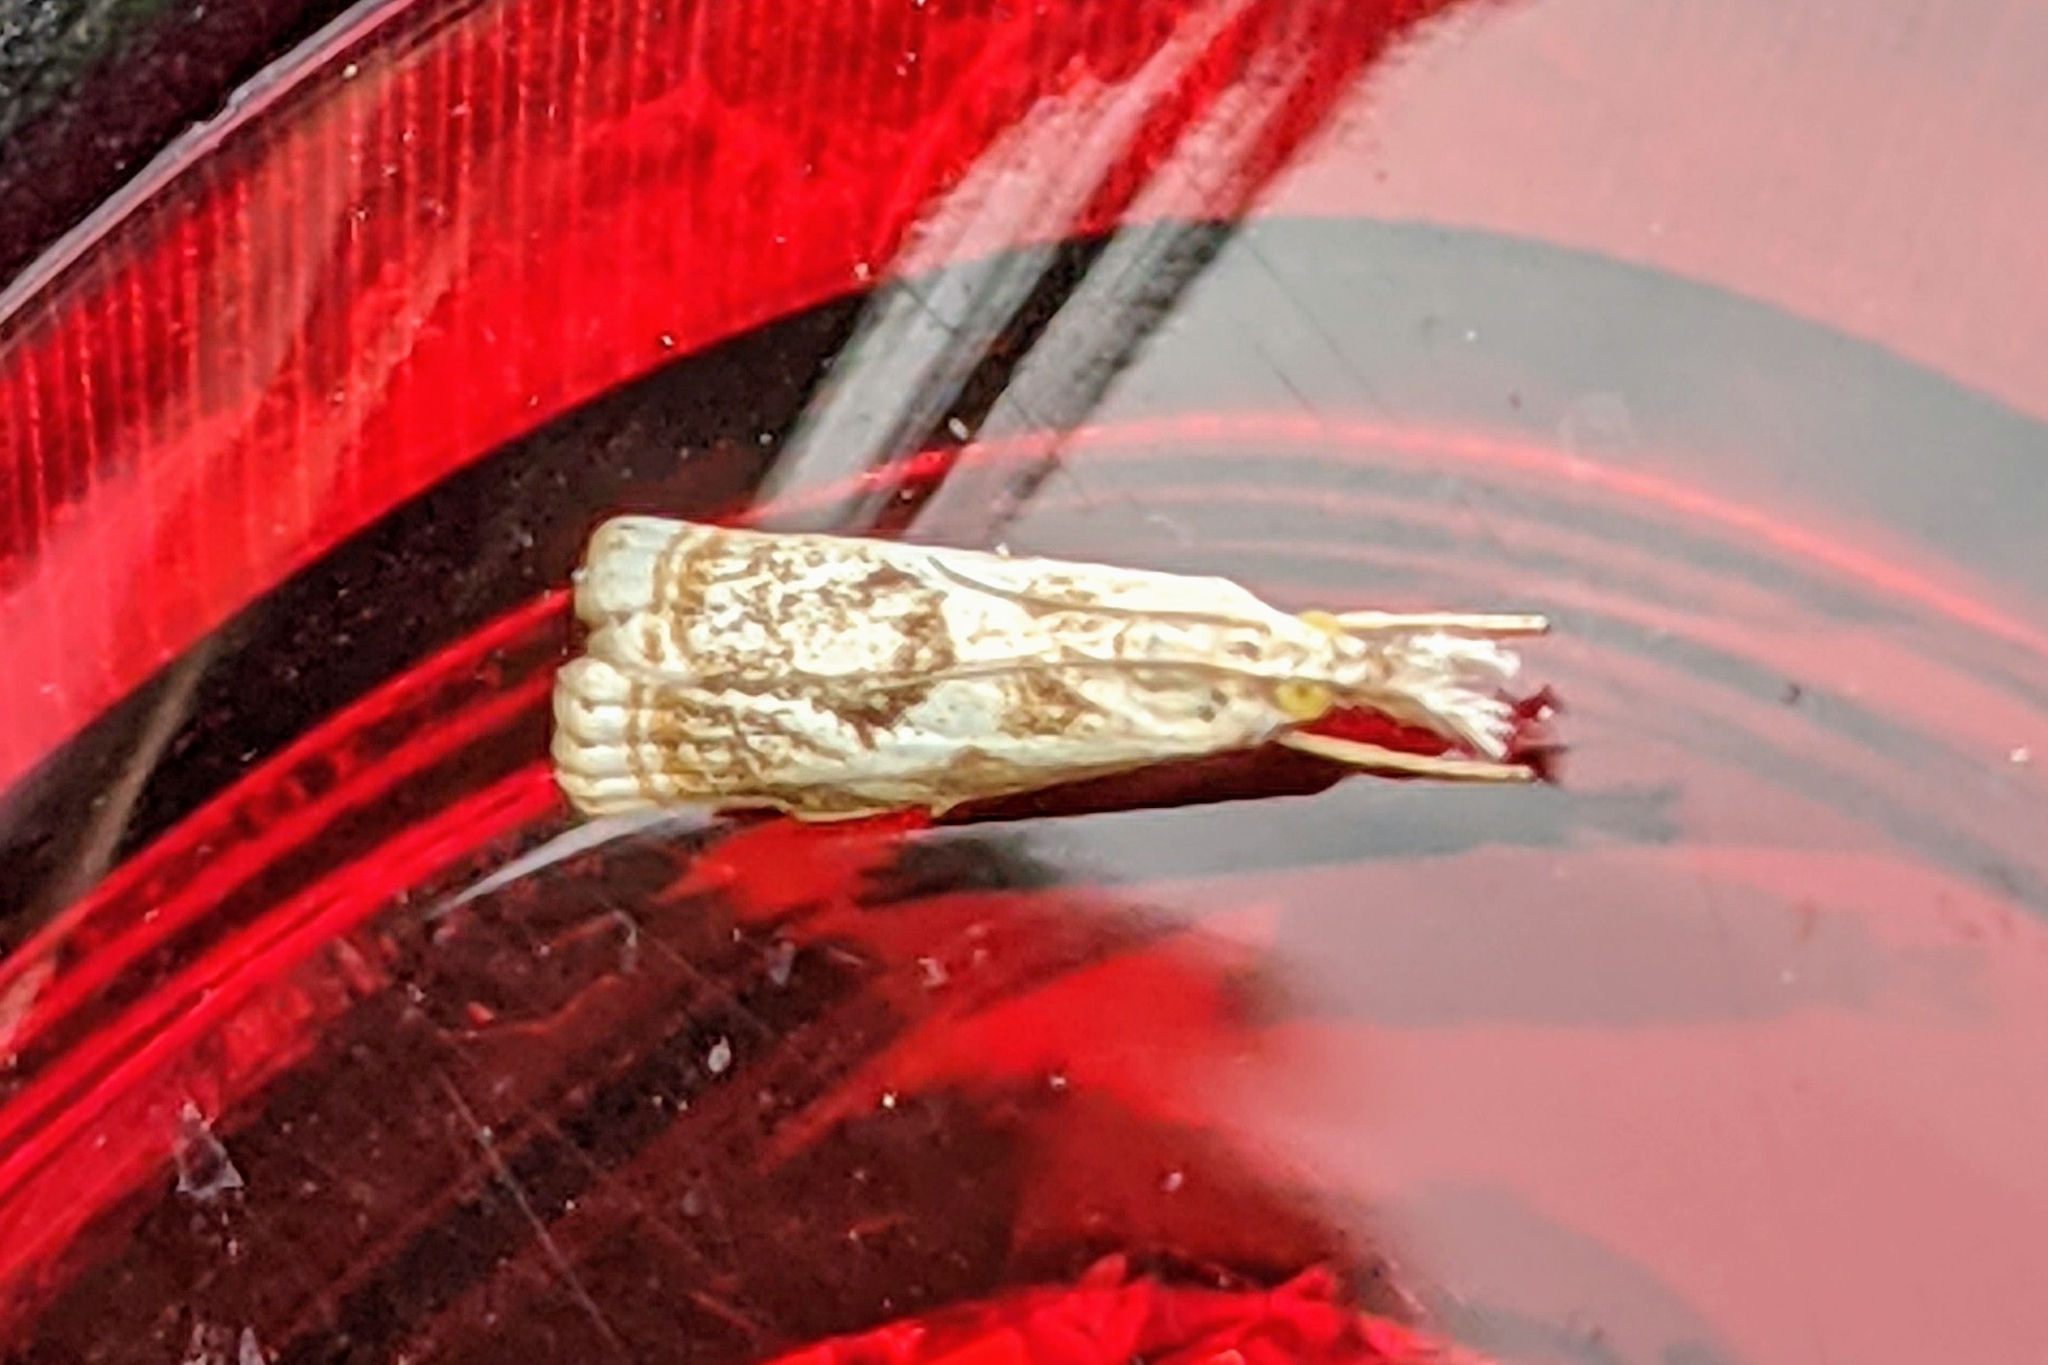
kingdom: Animalia
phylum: Arthropoda
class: Insecta
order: Lepidoptera
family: Crambidae
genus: Microcrambus
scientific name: Microcrambus elegans
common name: Elegant grass-veneer
